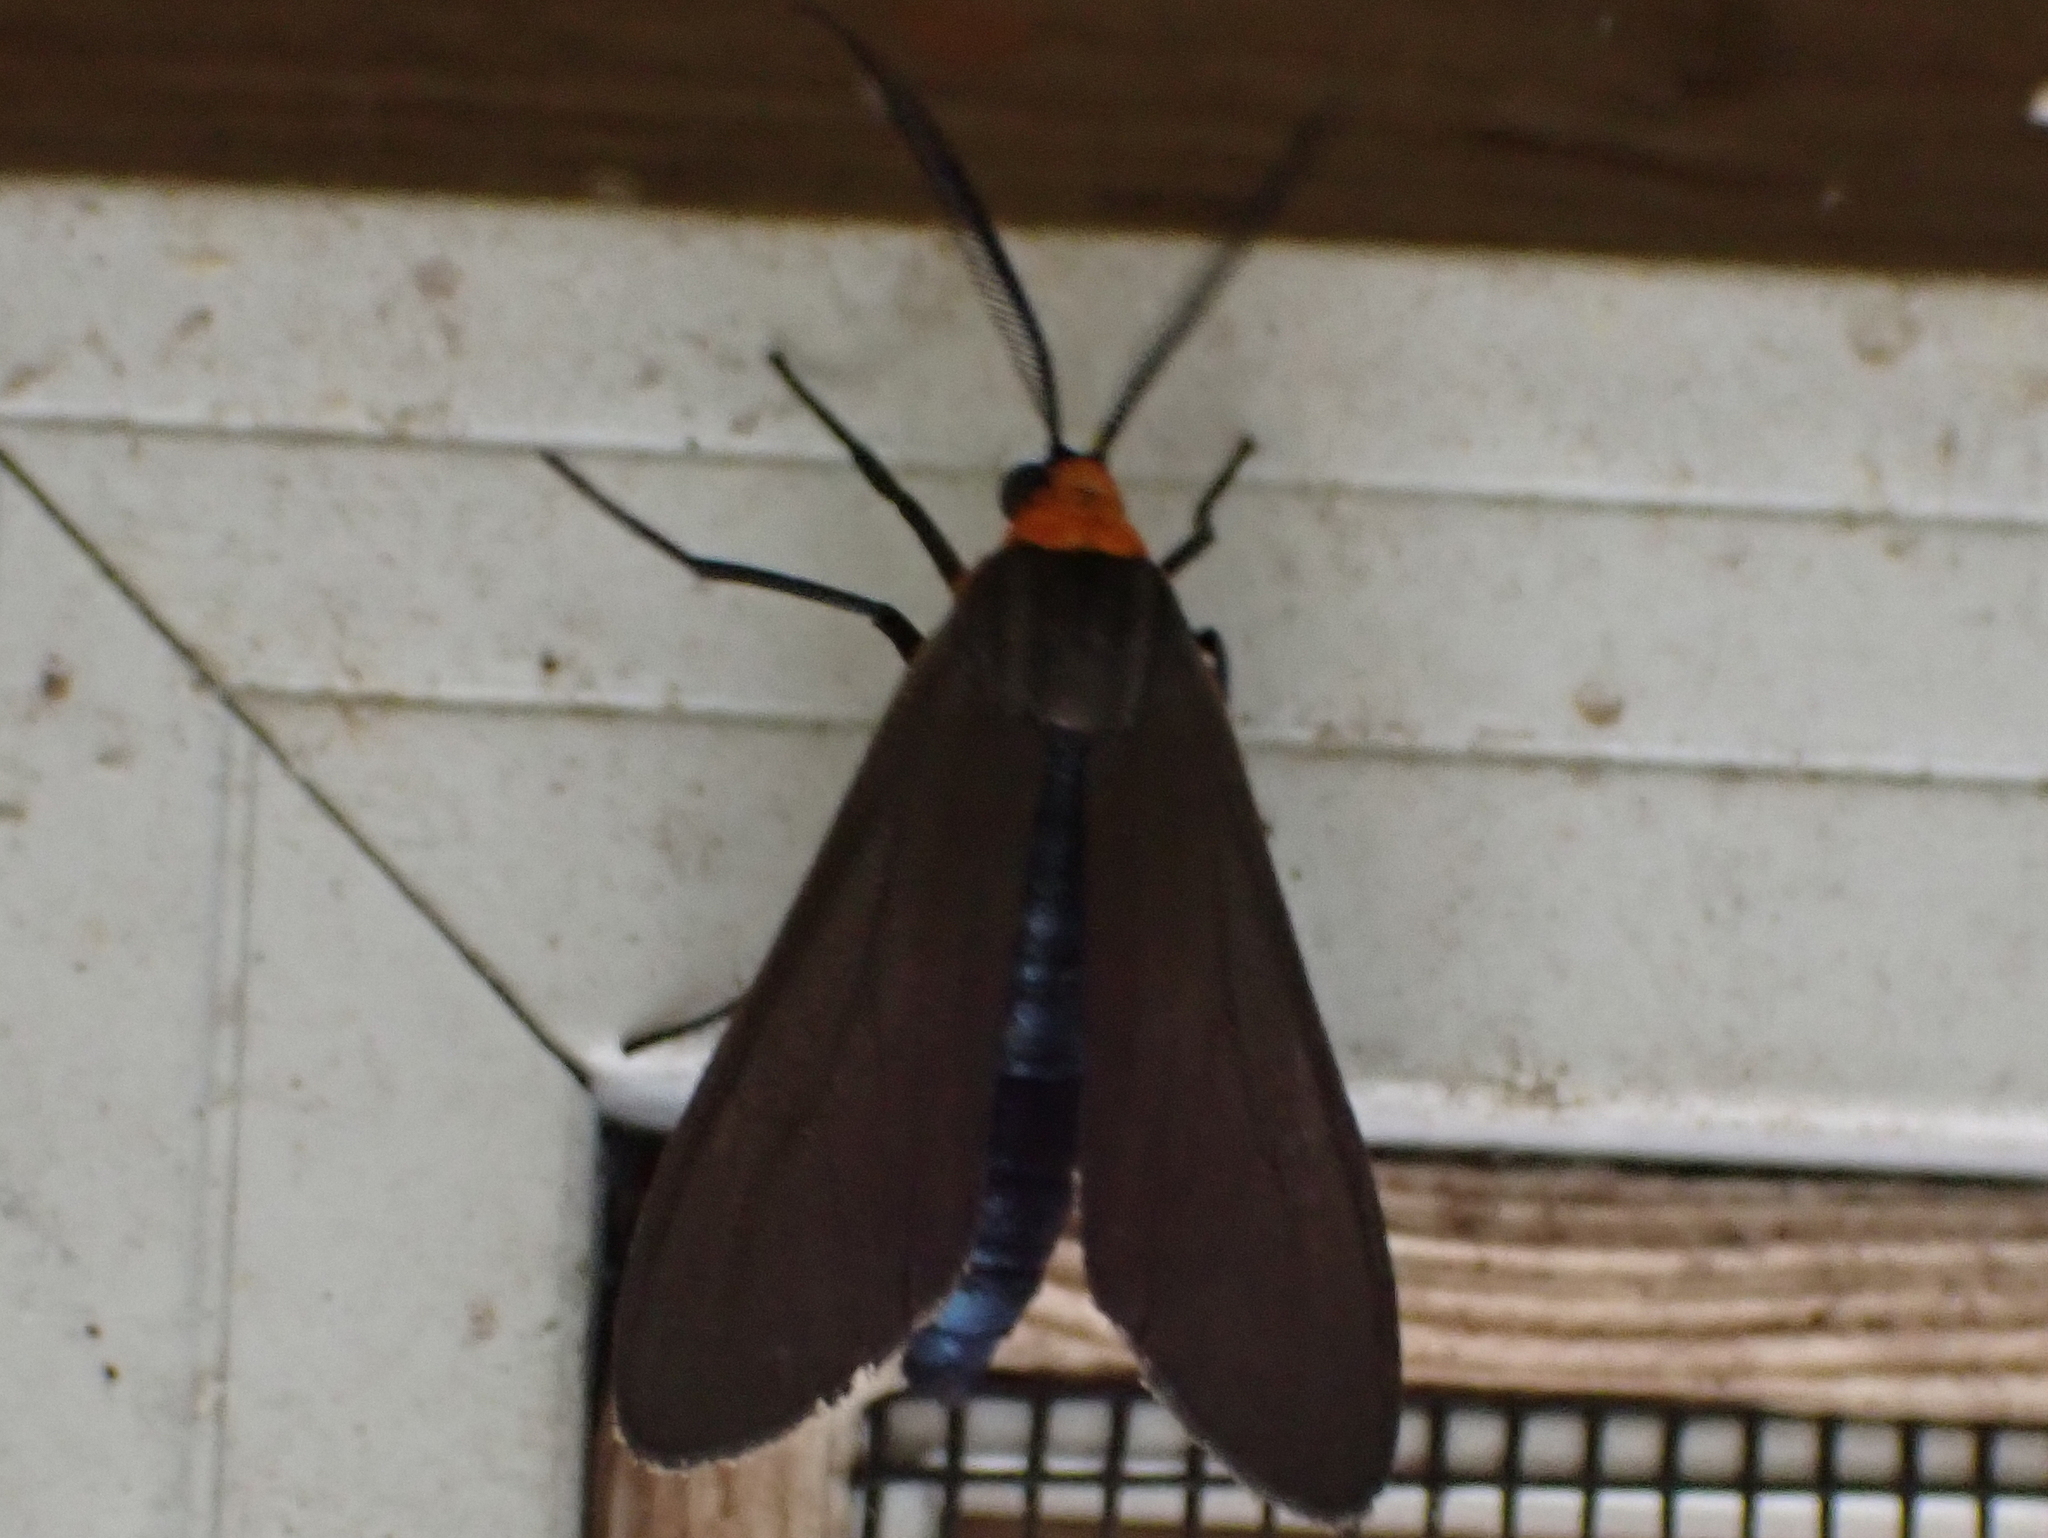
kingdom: Animalia
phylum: Arthropoda
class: Insecta
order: Lepidoptera
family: Erebidae
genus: Cisseps
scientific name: Cisseps fulvicollis
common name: Yellow-collared scape moth
